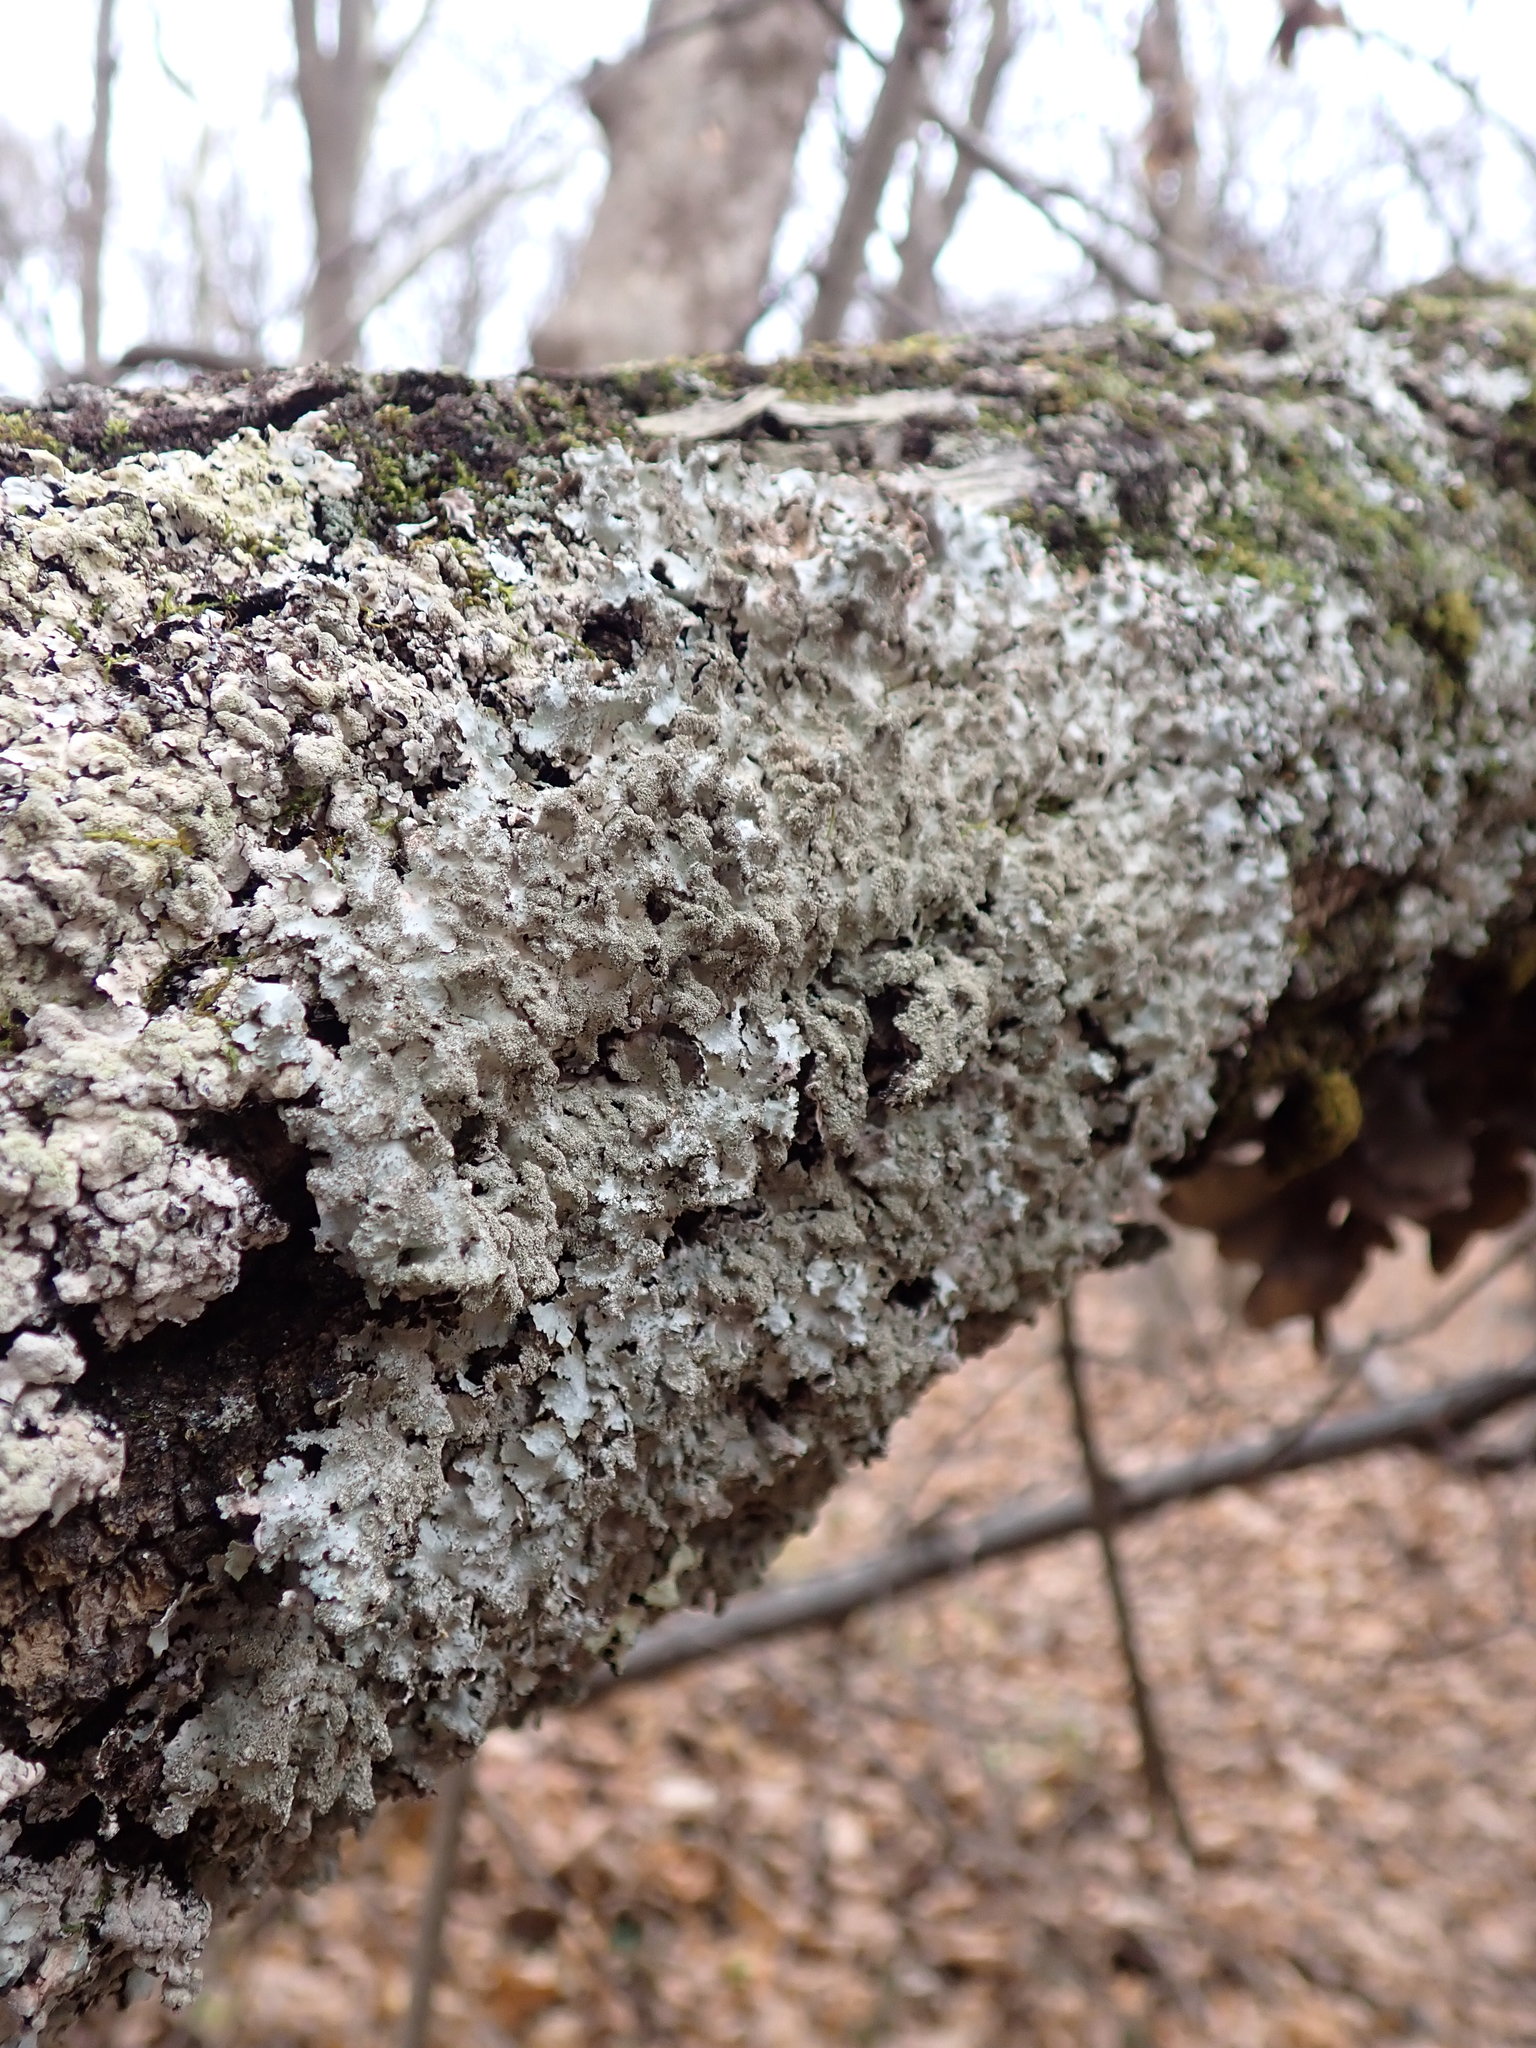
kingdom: Fungi
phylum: Ascomycota
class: Lecanoromycetes
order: Lecanorales
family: Parmeliaceae
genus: Punctelia
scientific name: Punctelia rudecta
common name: Rough speckled shield lichen
